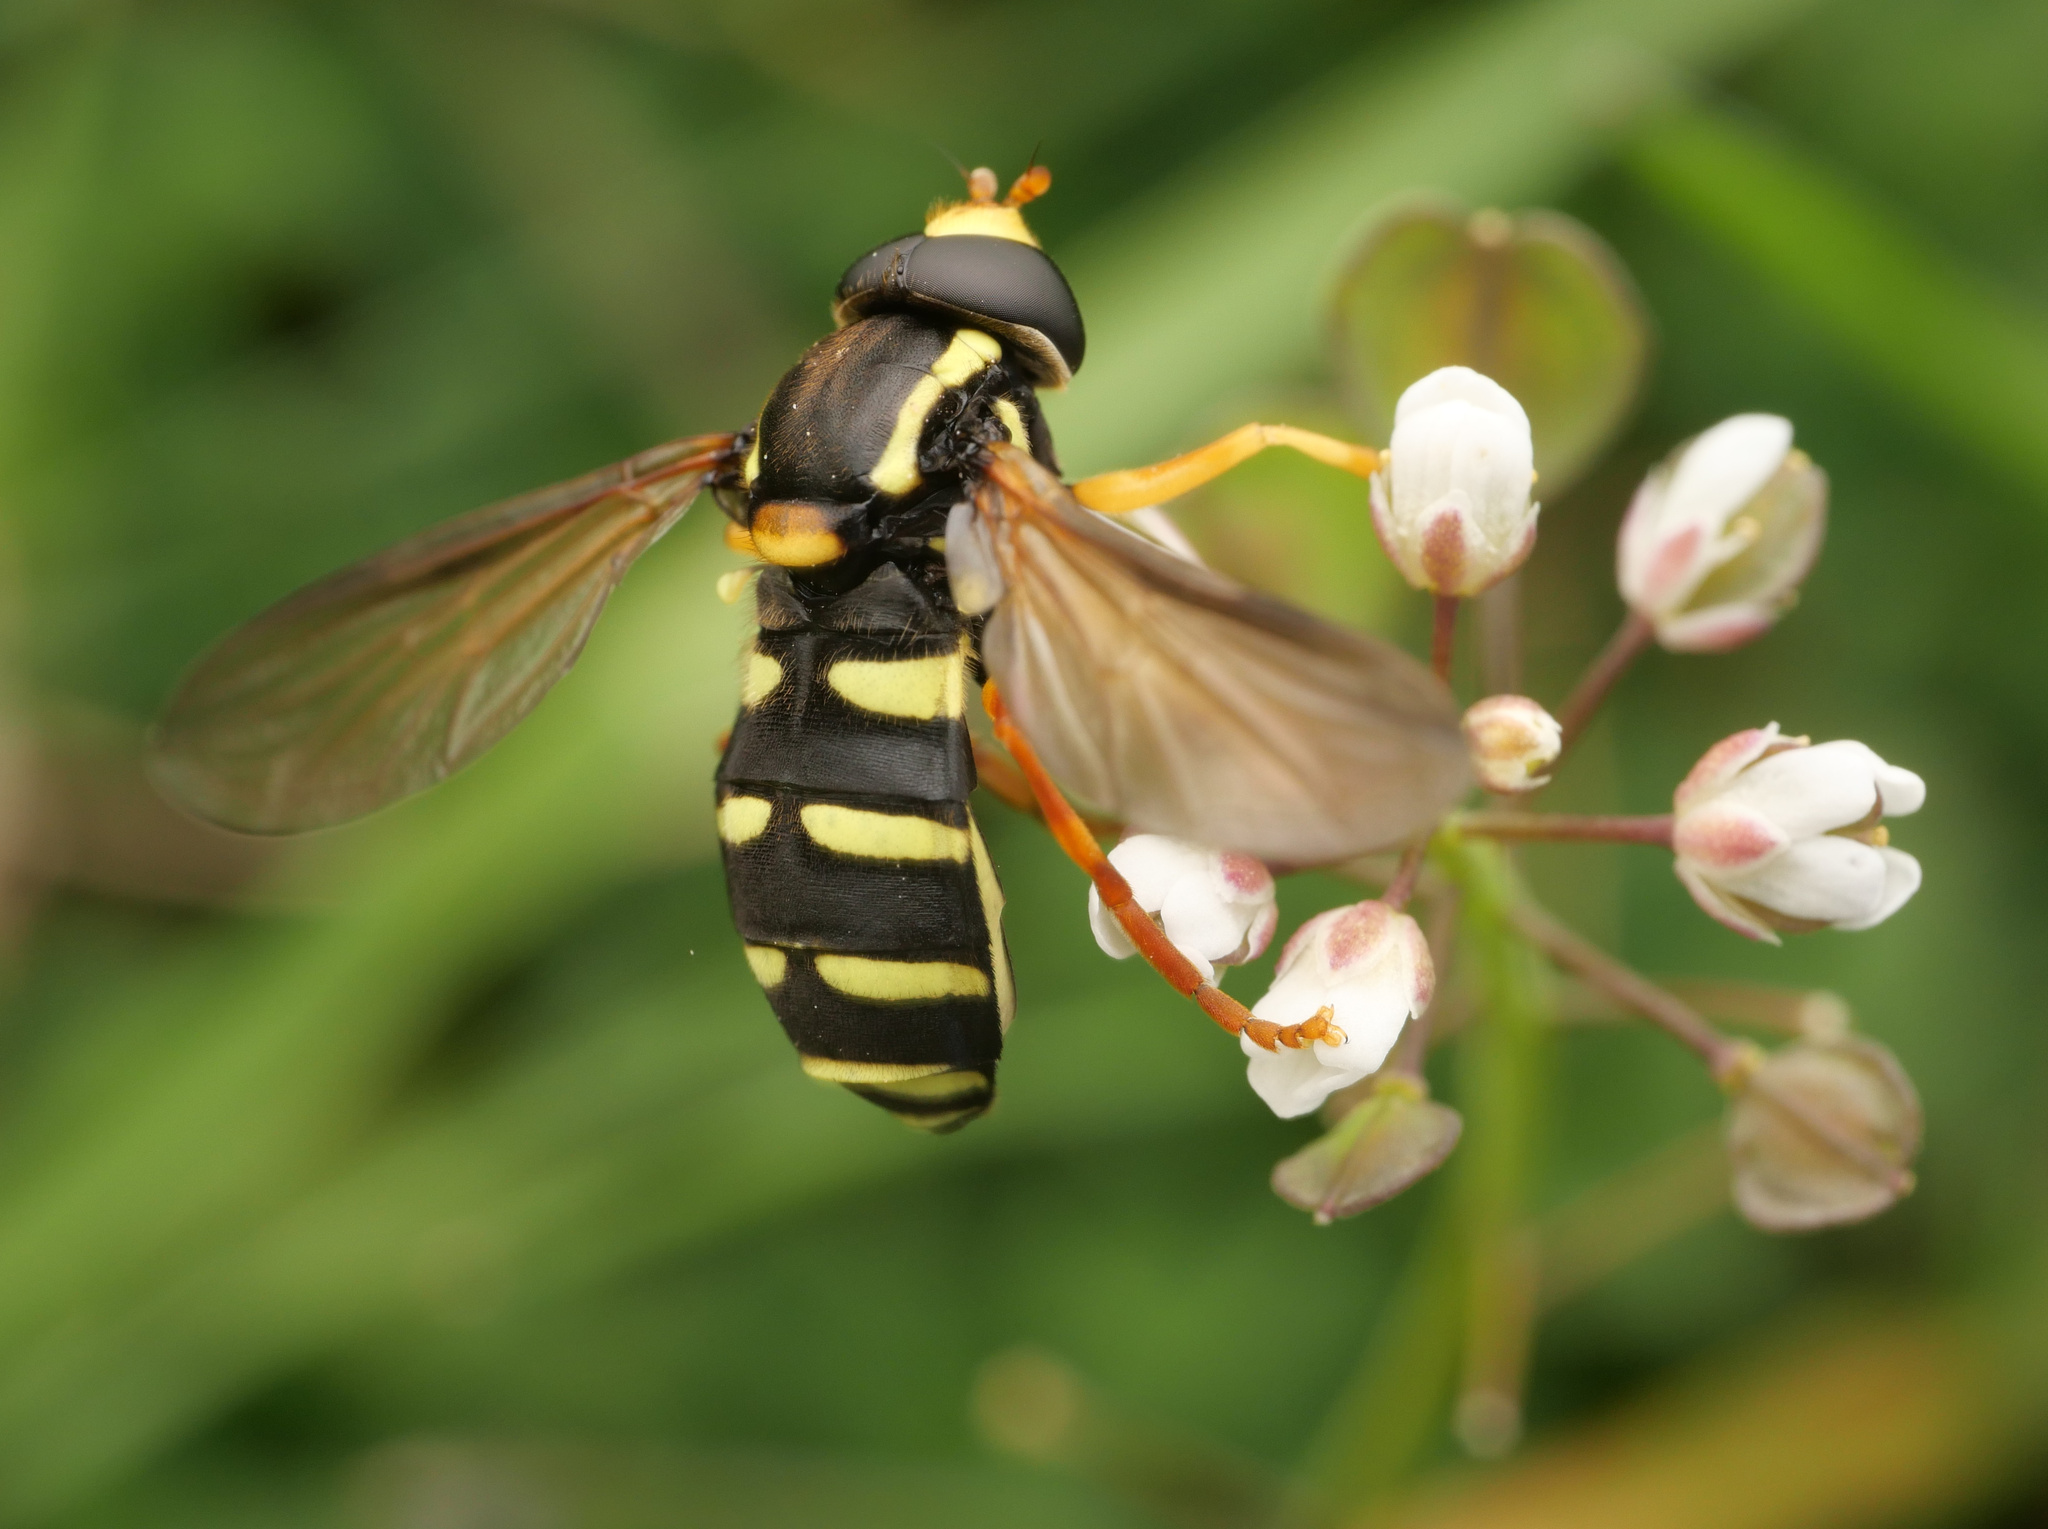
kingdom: Animalia
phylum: Arthropoda
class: Insecta
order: Diptera
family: Syrphidae
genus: Philhelius
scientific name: Philhelius citrofasciata
